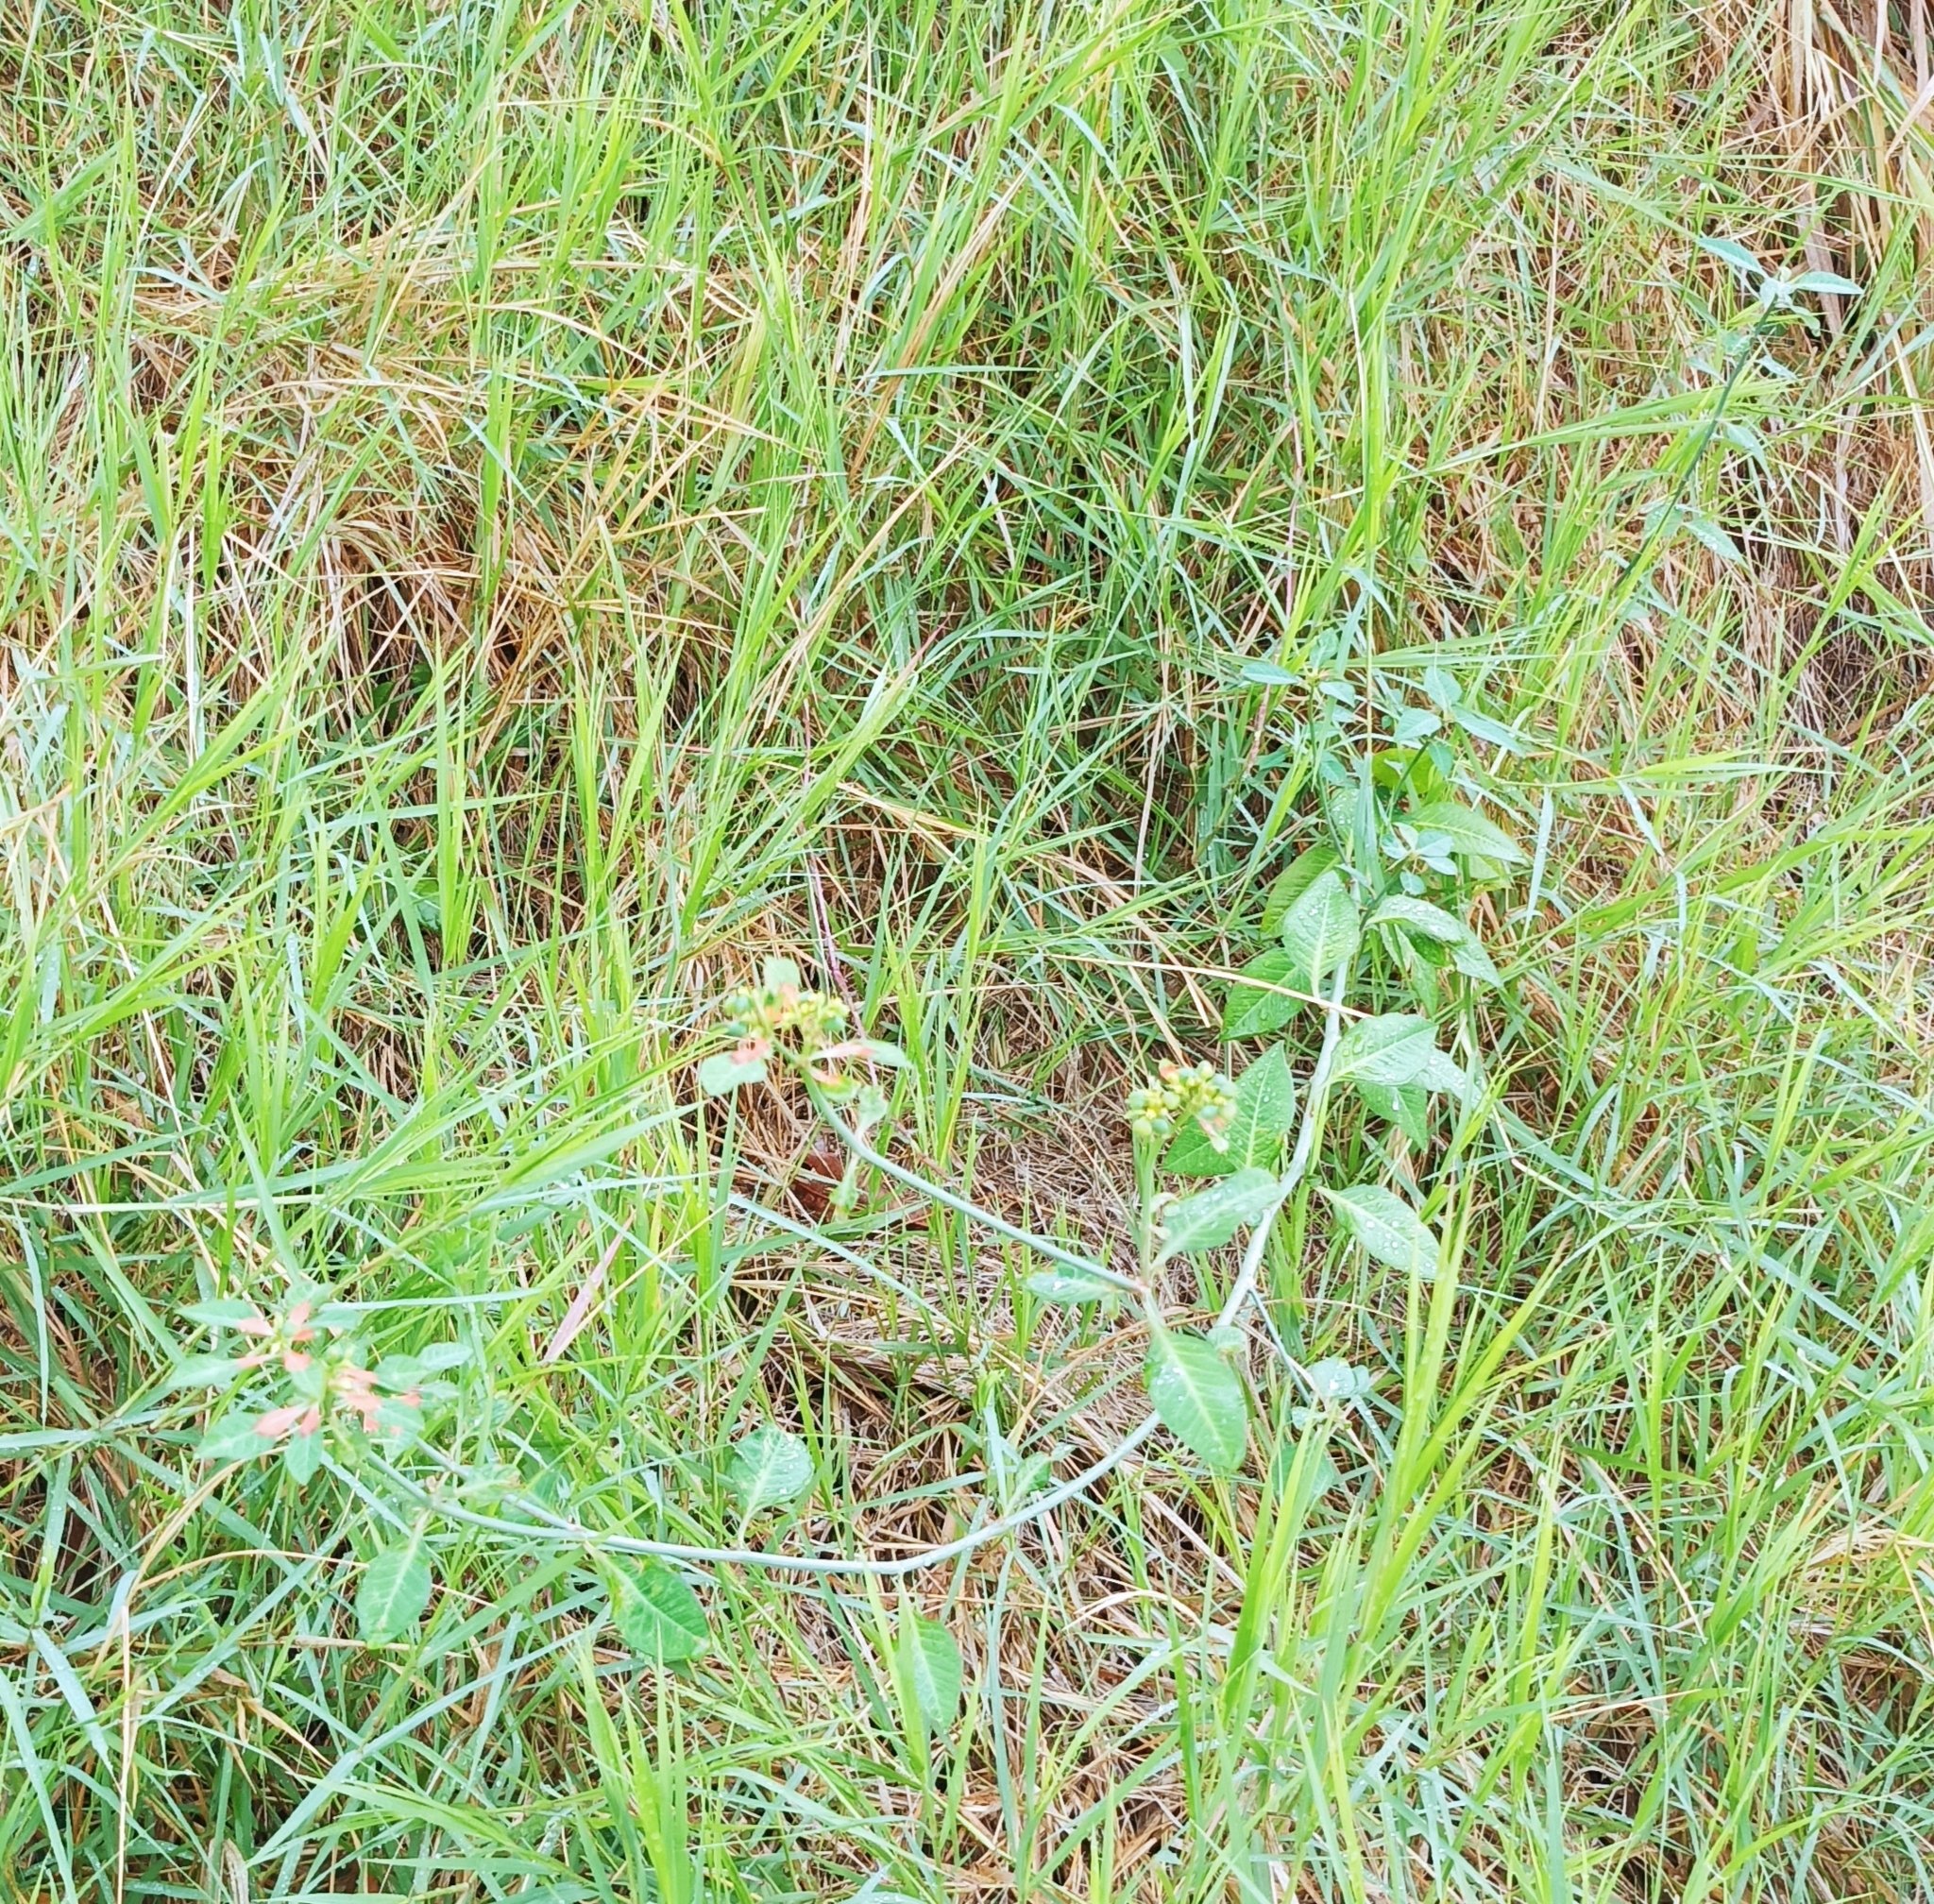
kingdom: Plantae
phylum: Tracheophyta
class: Magnoliopsida
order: Malpighiales
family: Euphorbiaceae
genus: Euphorbia
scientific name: Euphorbia heterophylla
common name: Mexican fireplant
